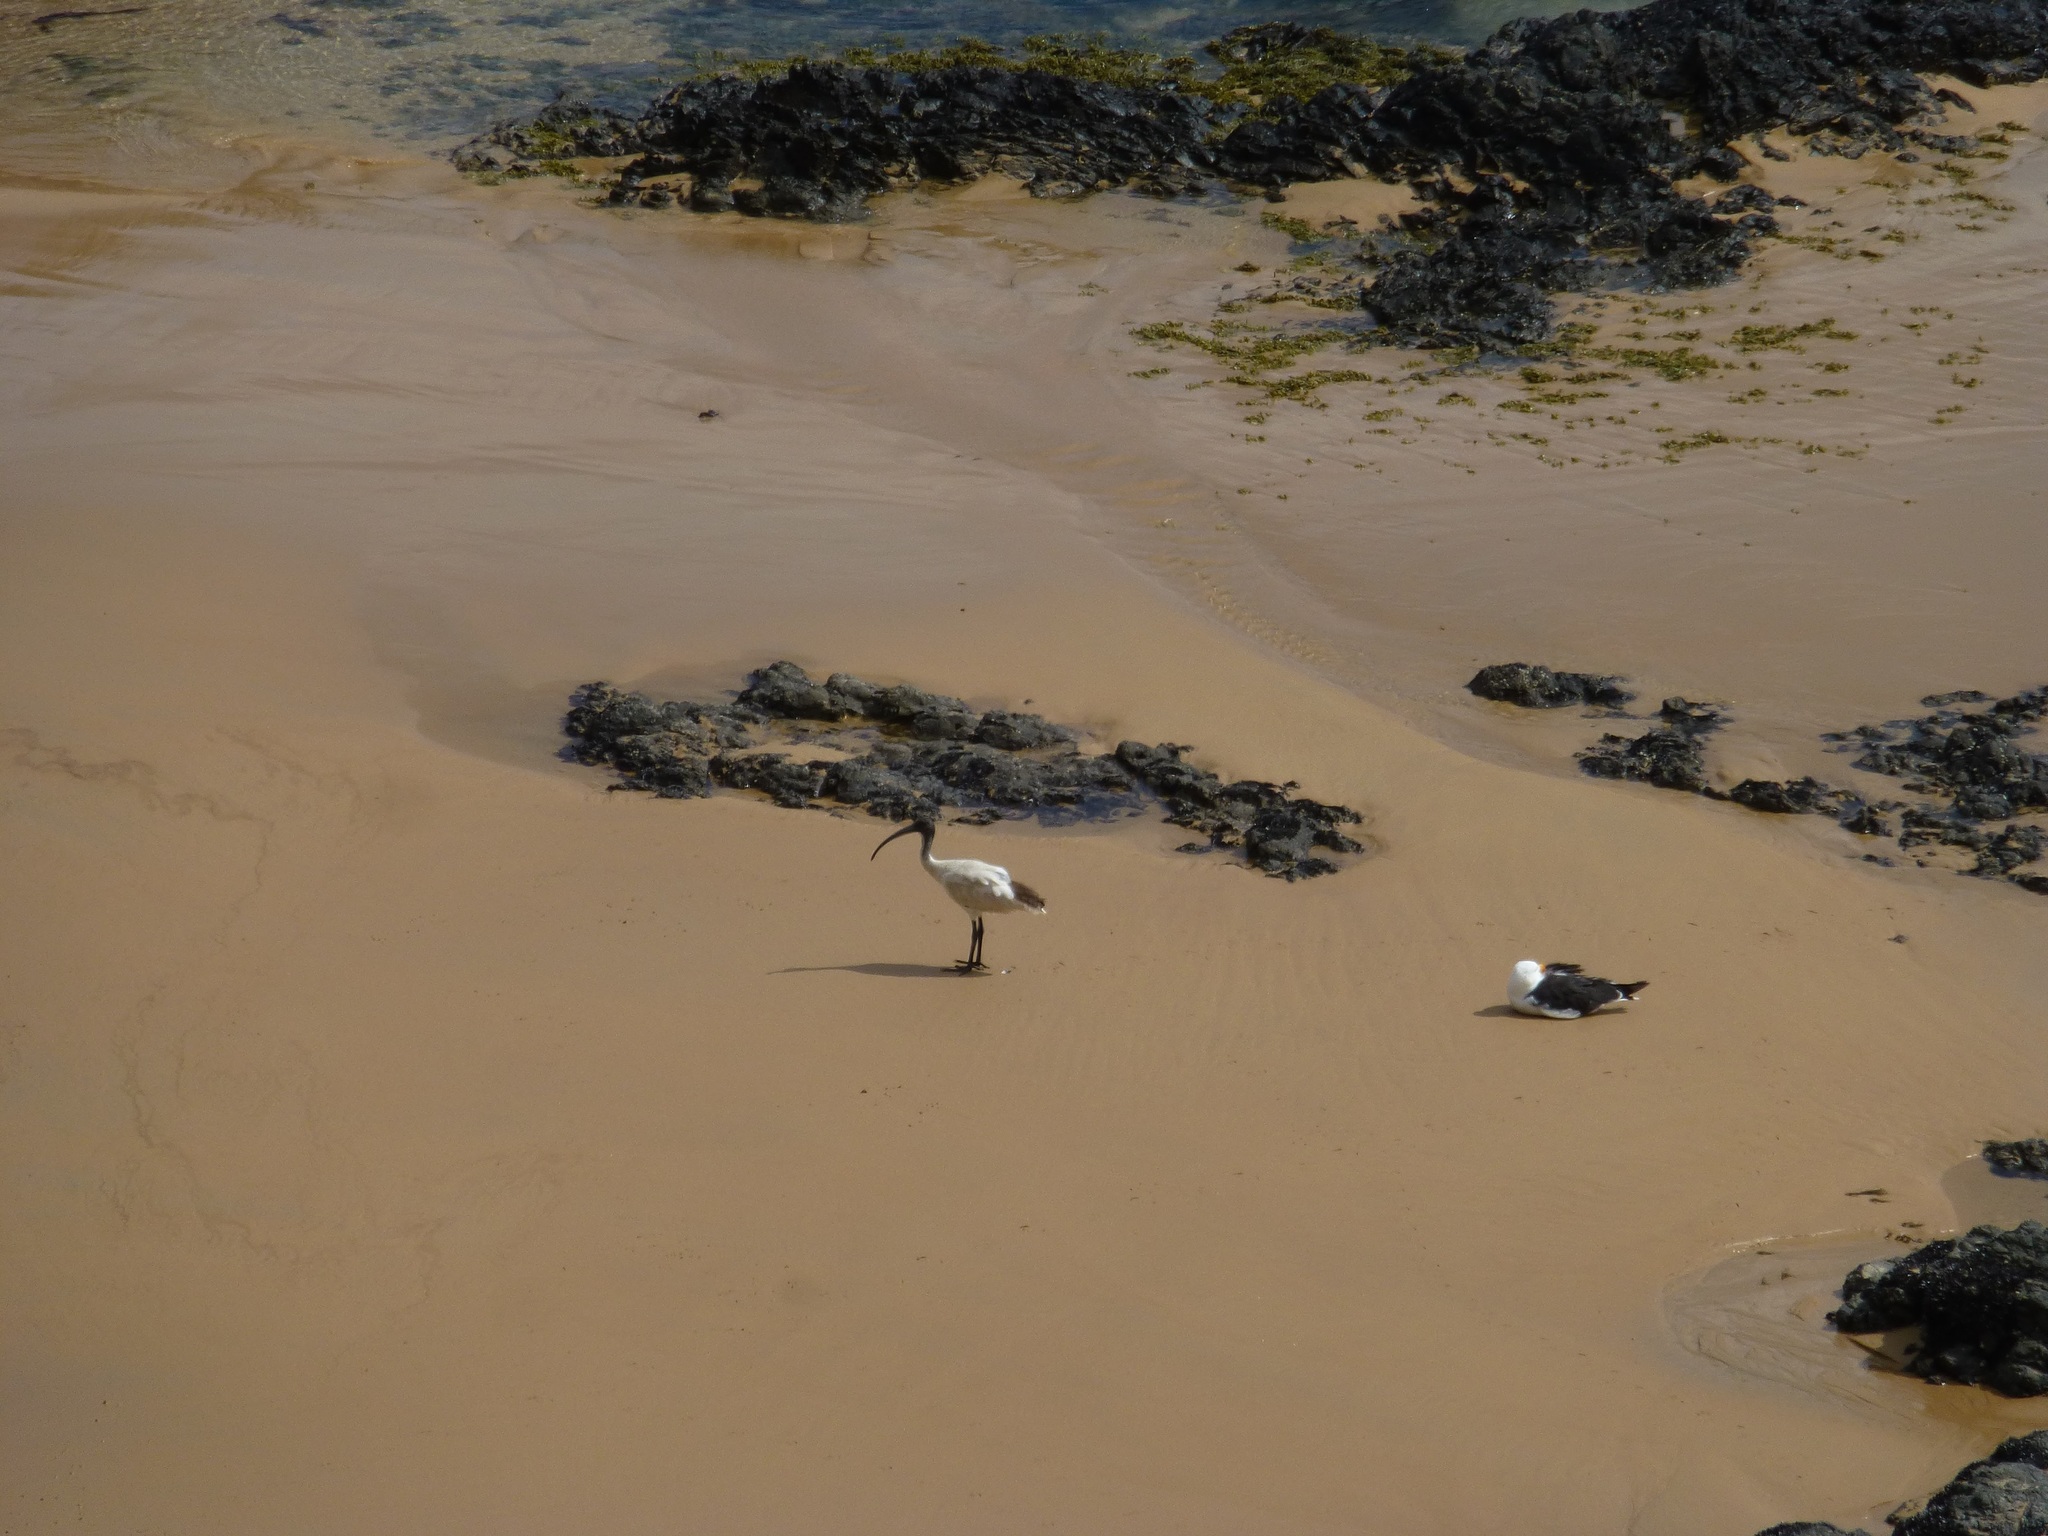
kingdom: Animalia
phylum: Chordata
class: Aves
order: Pelecaniformes
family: Threskiornithidae
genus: Threskiornis
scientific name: Threskiornis molucca
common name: Australian white ibis
